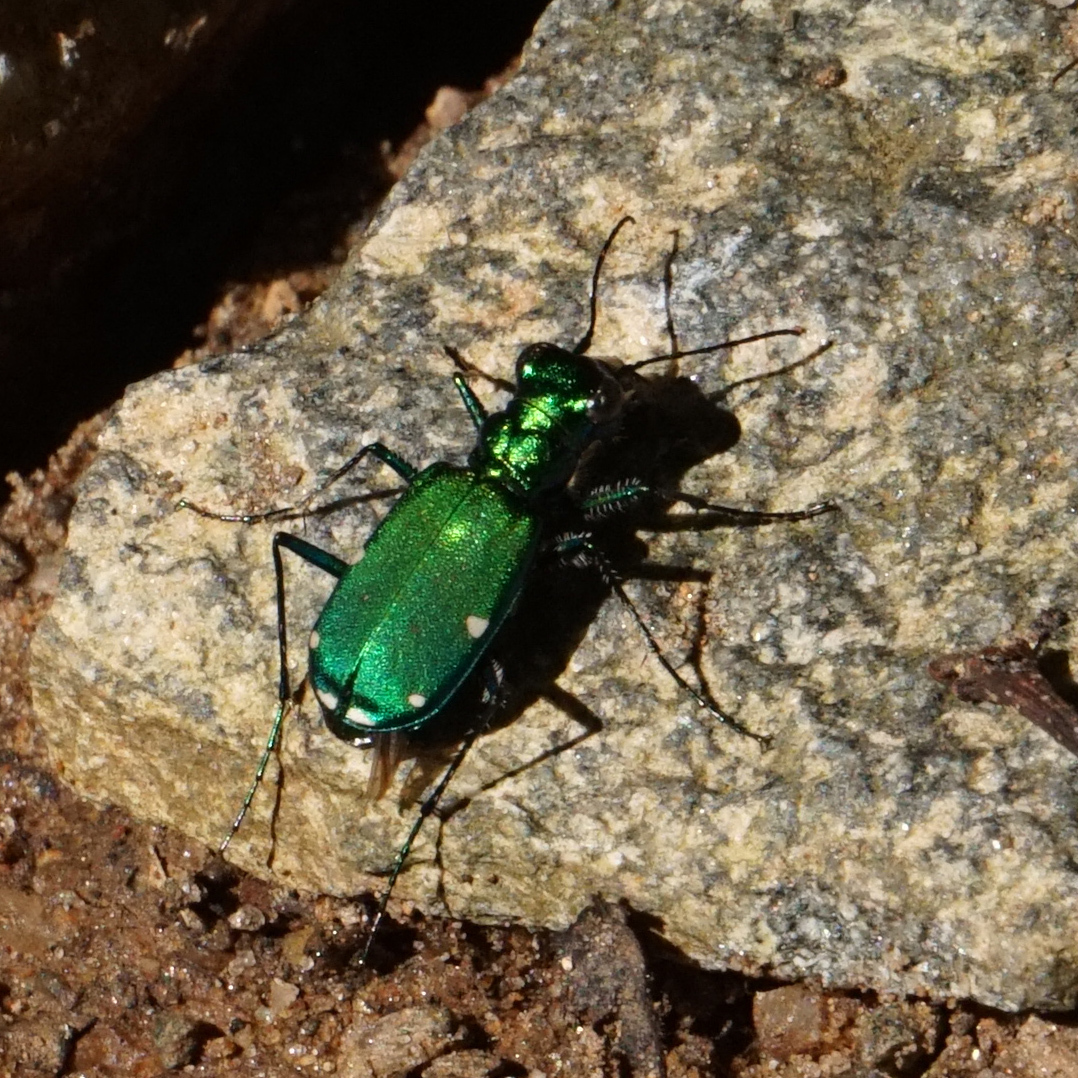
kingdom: Animalia
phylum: Arthropoda
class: Insecta
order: Coleoptera
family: Carabidae
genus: Cicindela
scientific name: Cicindela sexguttata
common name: Six-spotted tiger beetle
